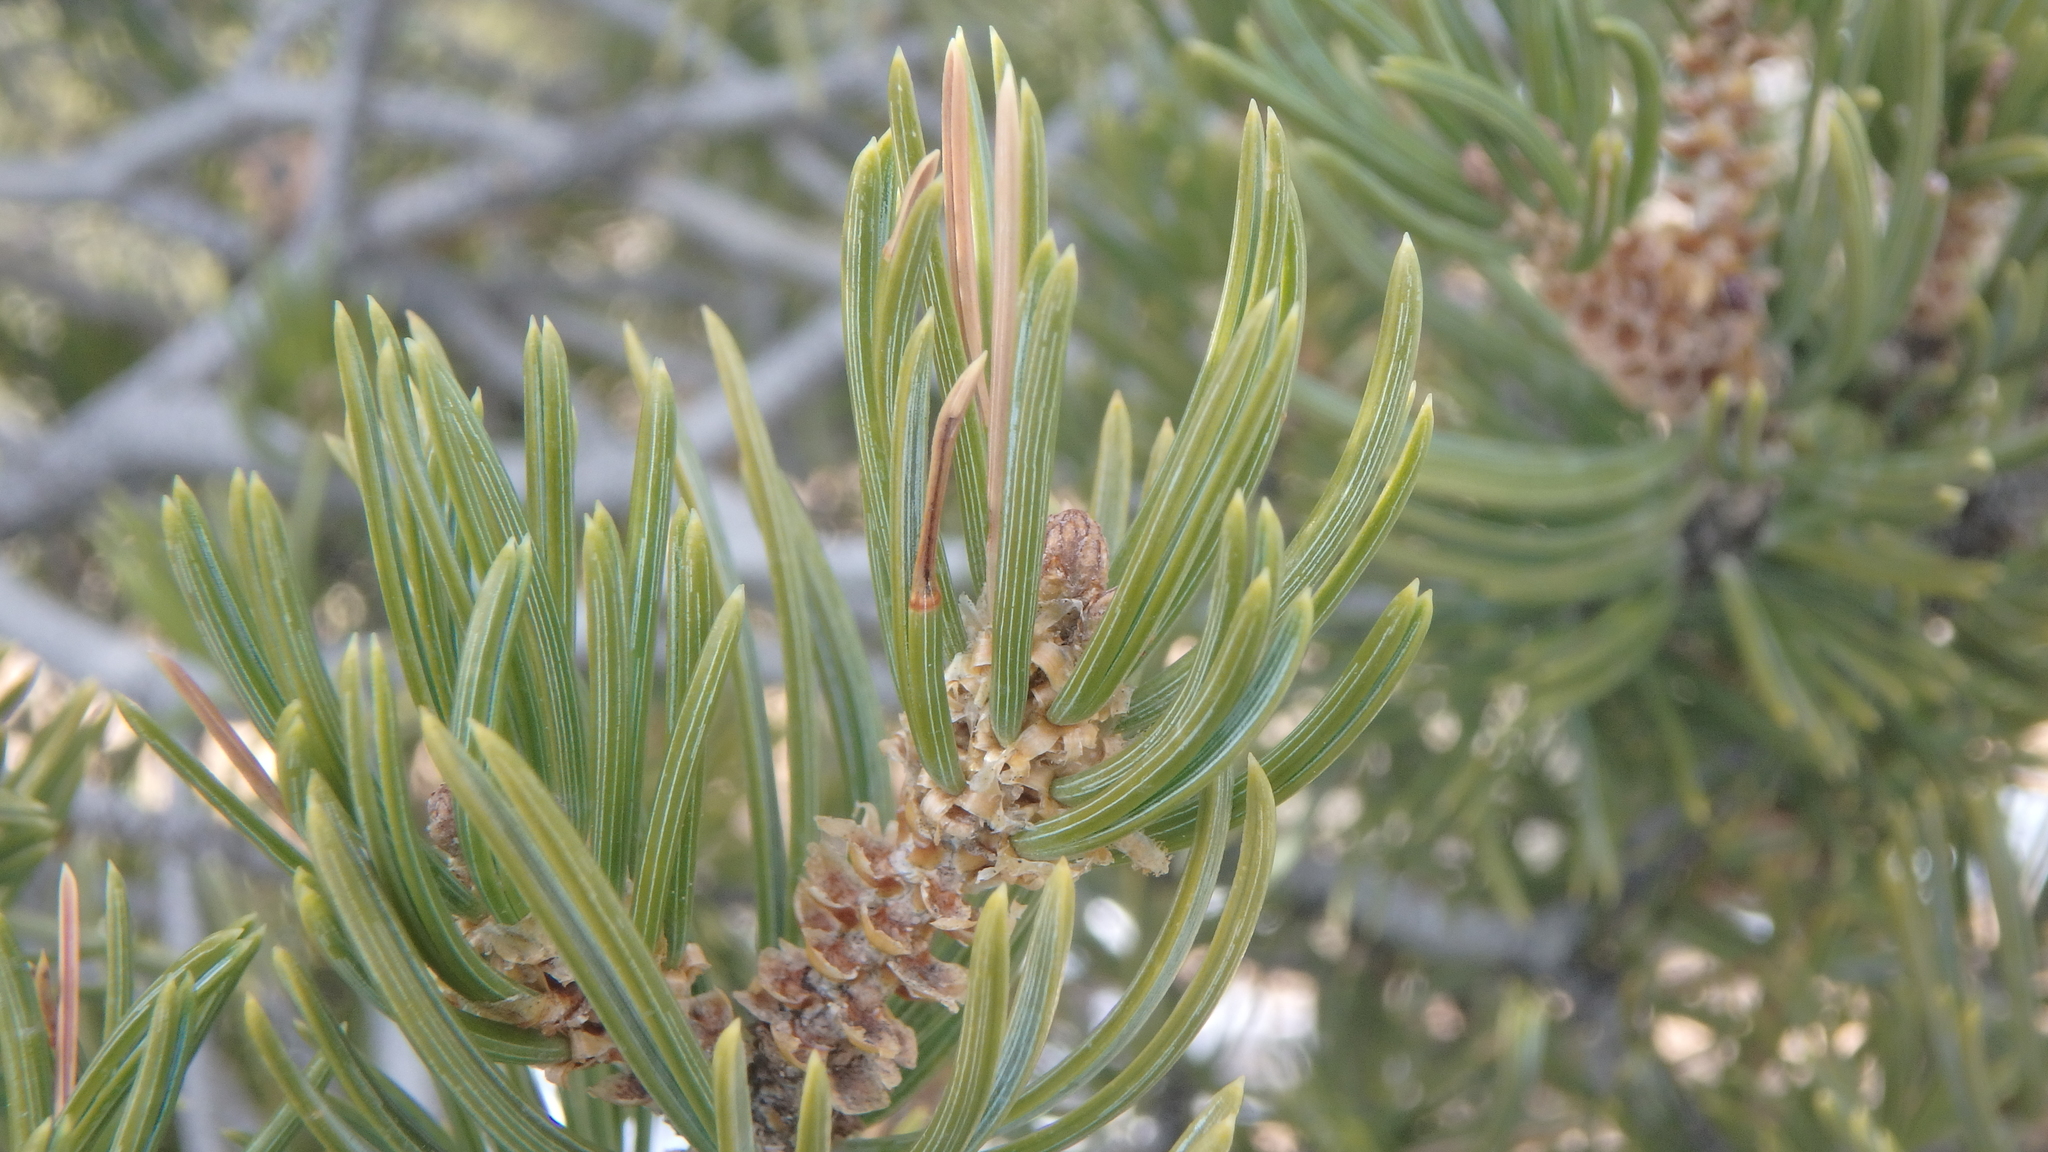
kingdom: Plantae
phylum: Tracheophyta
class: Pinopsida
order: Pinales
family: Pinaceae
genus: Pinus
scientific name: Pinus edulis
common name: Colorado pinyon
